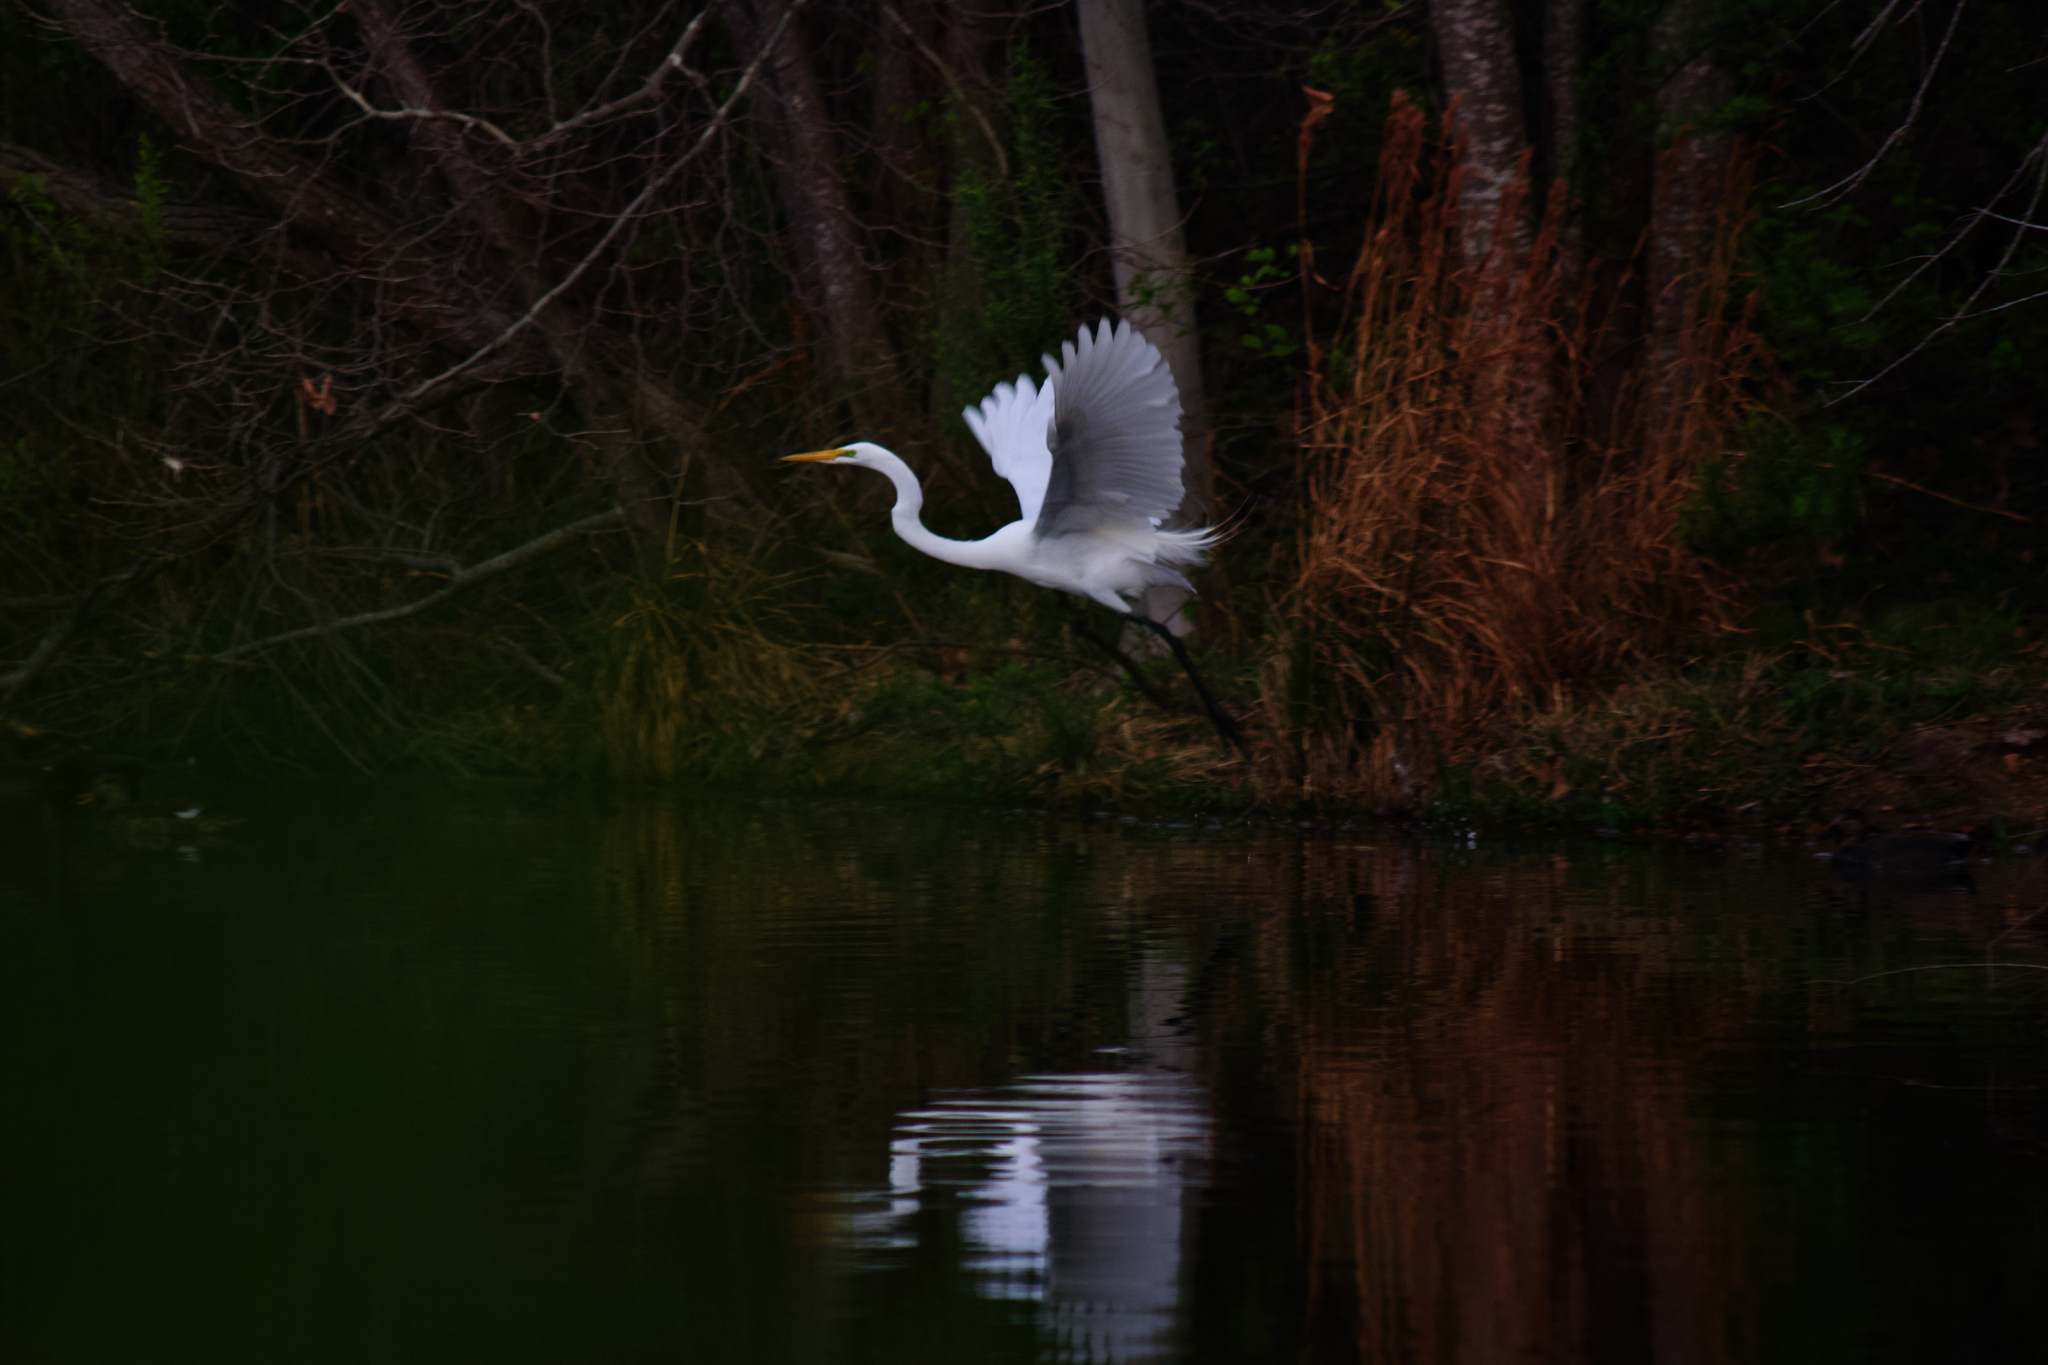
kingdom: Animalia
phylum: Chordata
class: Aves
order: Pelecaniformes
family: Ardeidae
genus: Ardea
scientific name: Ardea alba
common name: Great egret
